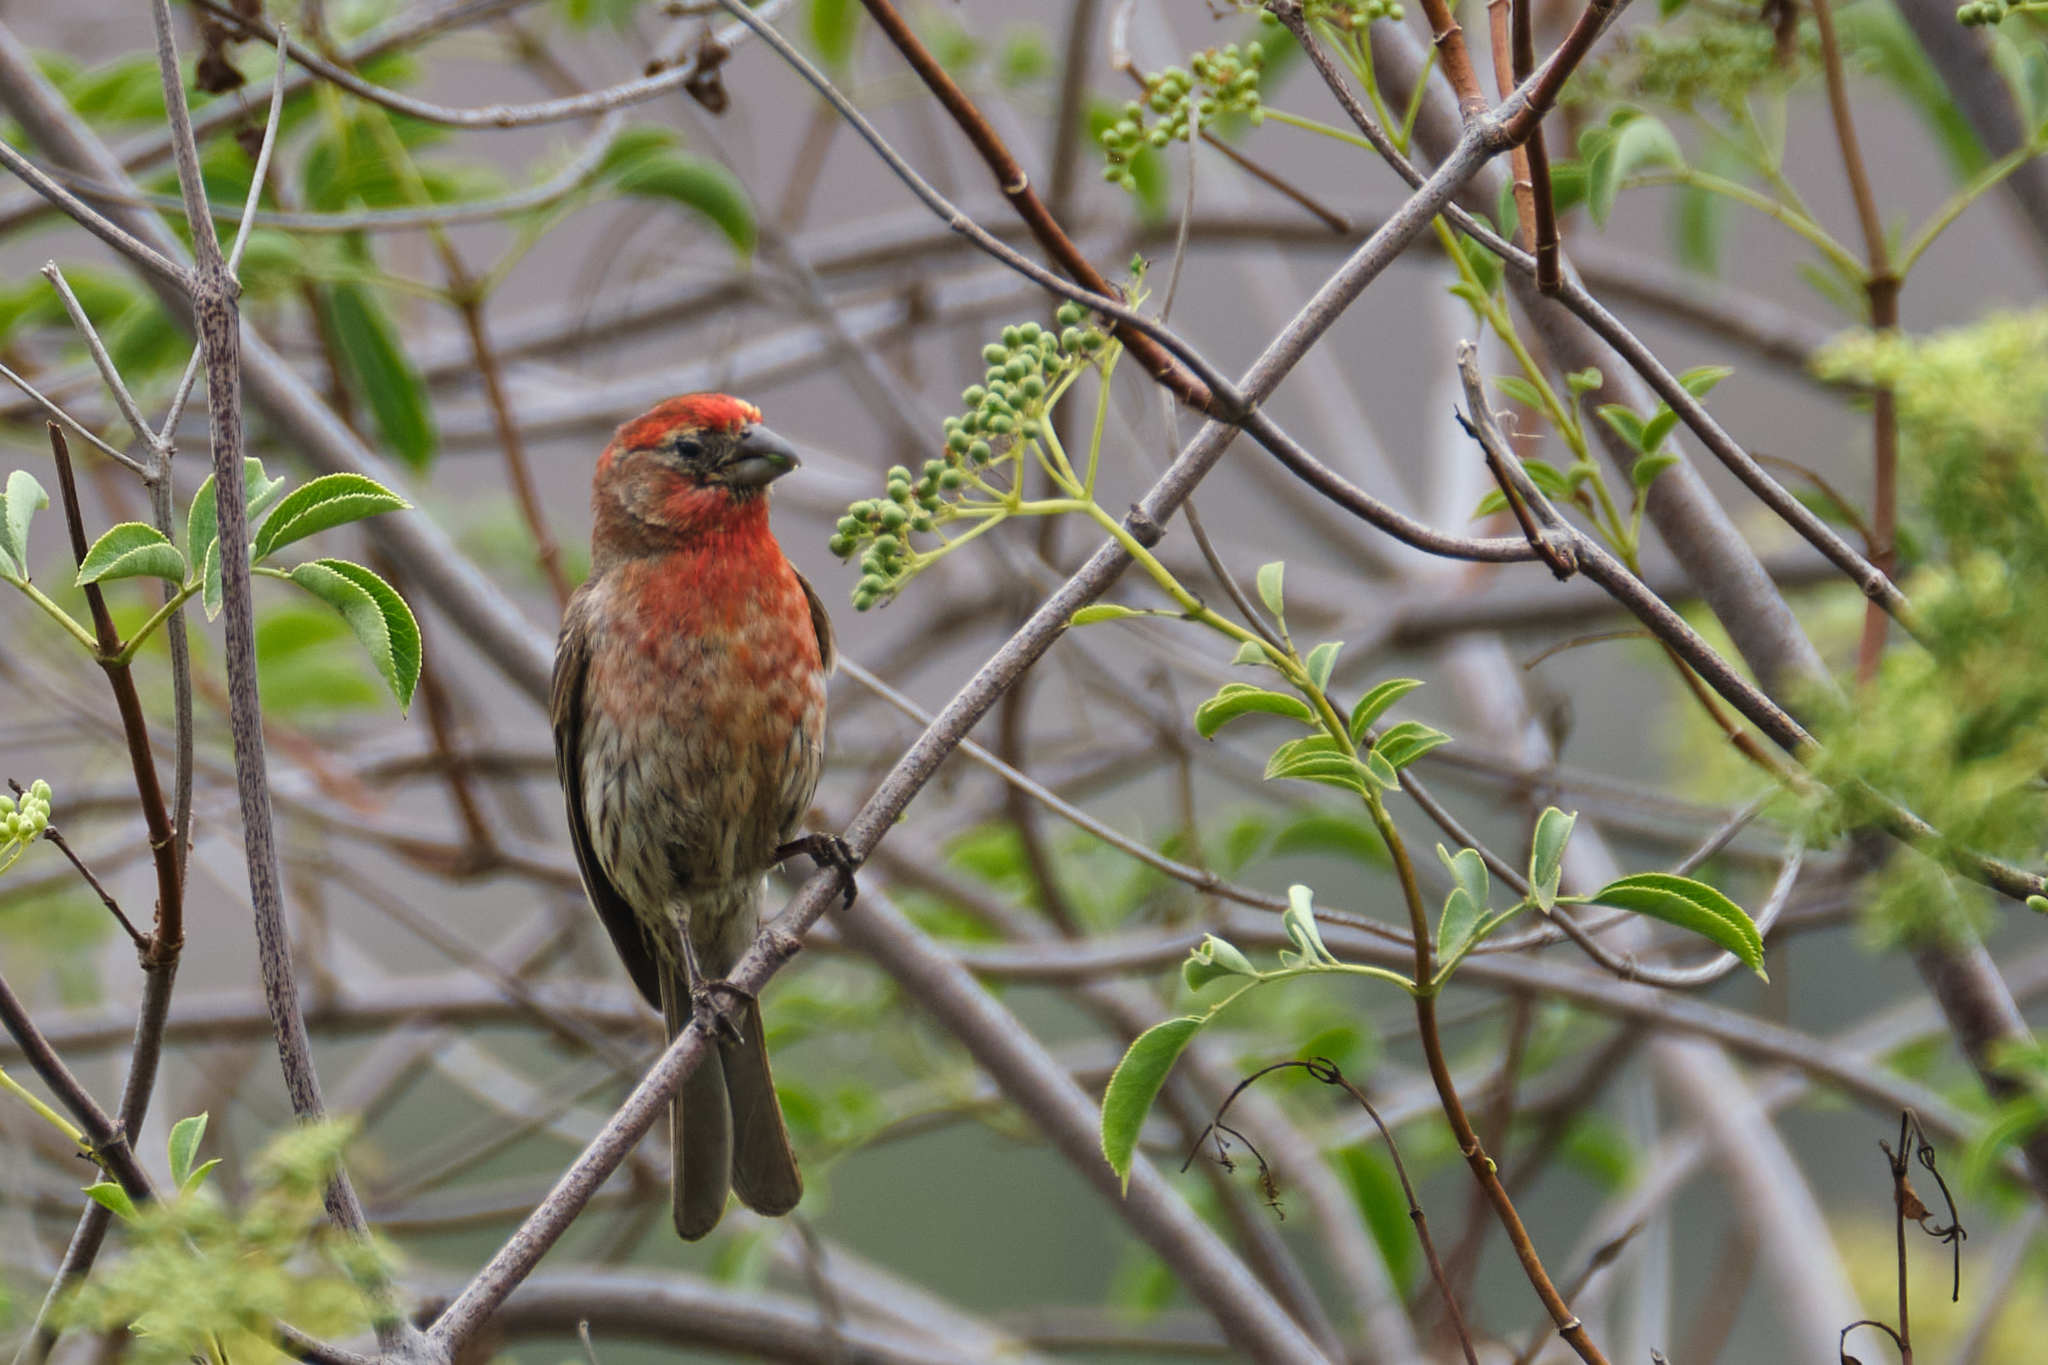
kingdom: Animalia
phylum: Chordata
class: Aves
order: Passeriformes
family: Fringillidae
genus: Haemorhous
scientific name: Haemorhous mexicanus
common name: House finch
